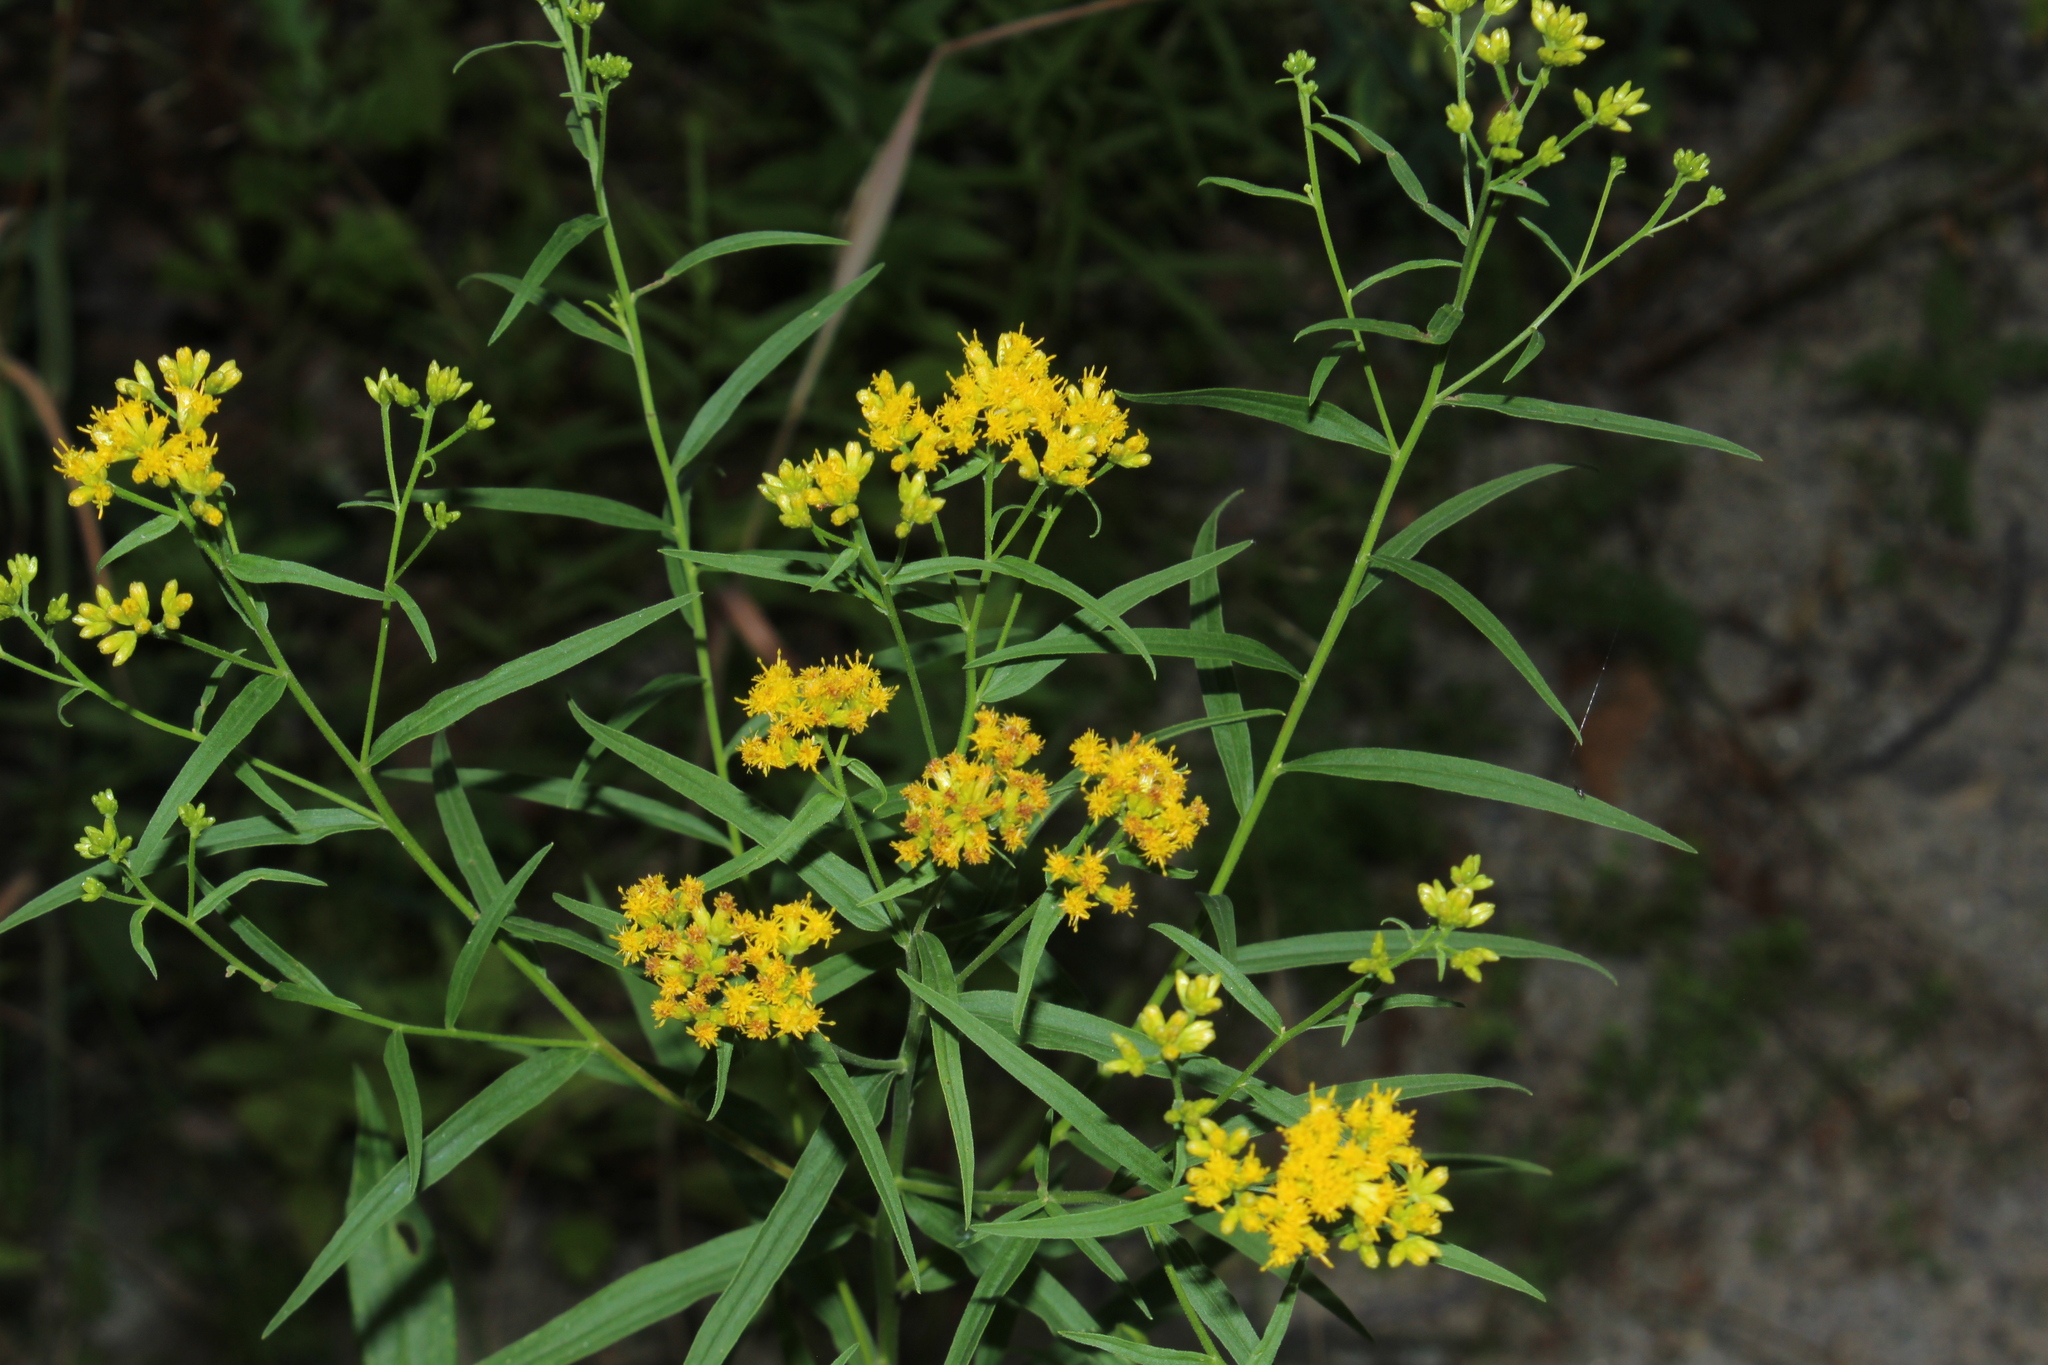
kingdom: Plantae
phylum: Tracheophyta
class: Magnoliopsida
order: Asterales
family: Asteraceae
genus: Euthamia
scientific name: Euthamia graminifolia
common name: Common goldentop
